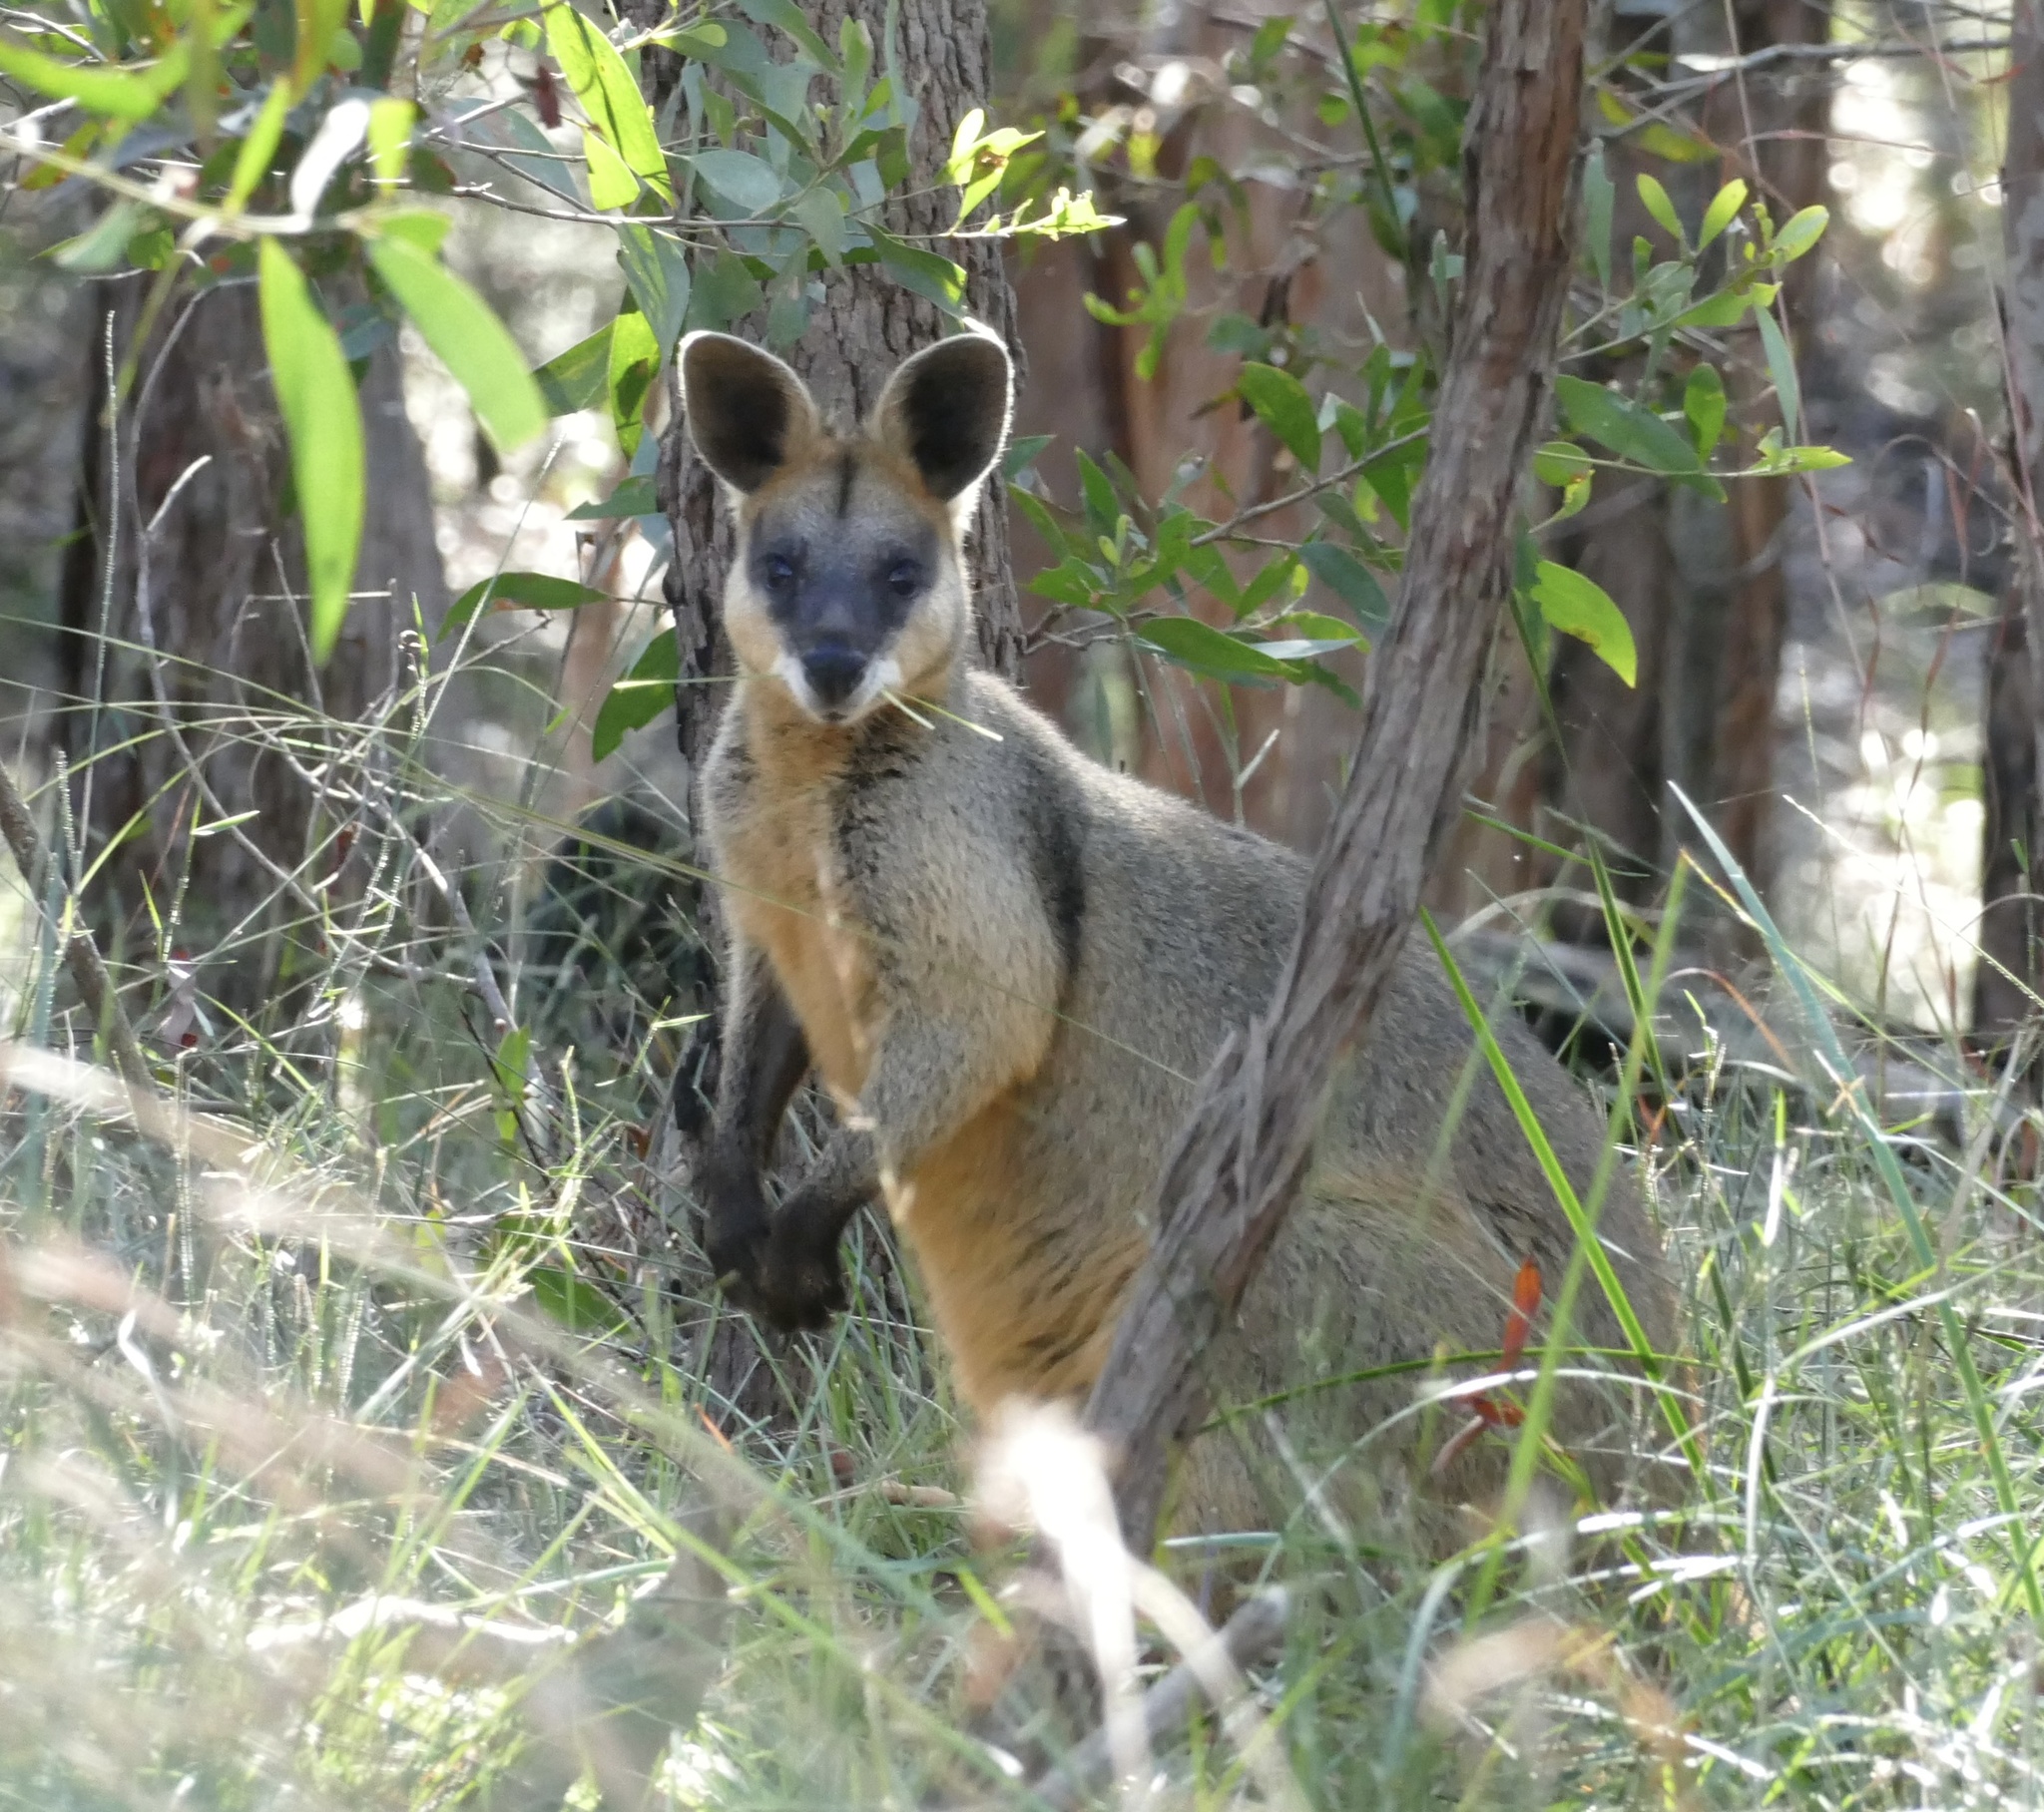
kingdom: Animalia
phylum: Chordata
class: Mammalia
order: Diprotodontia
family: Macropodidae
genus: Wallabia
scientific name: Wallabia bicolor
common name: Swamp wallaby
